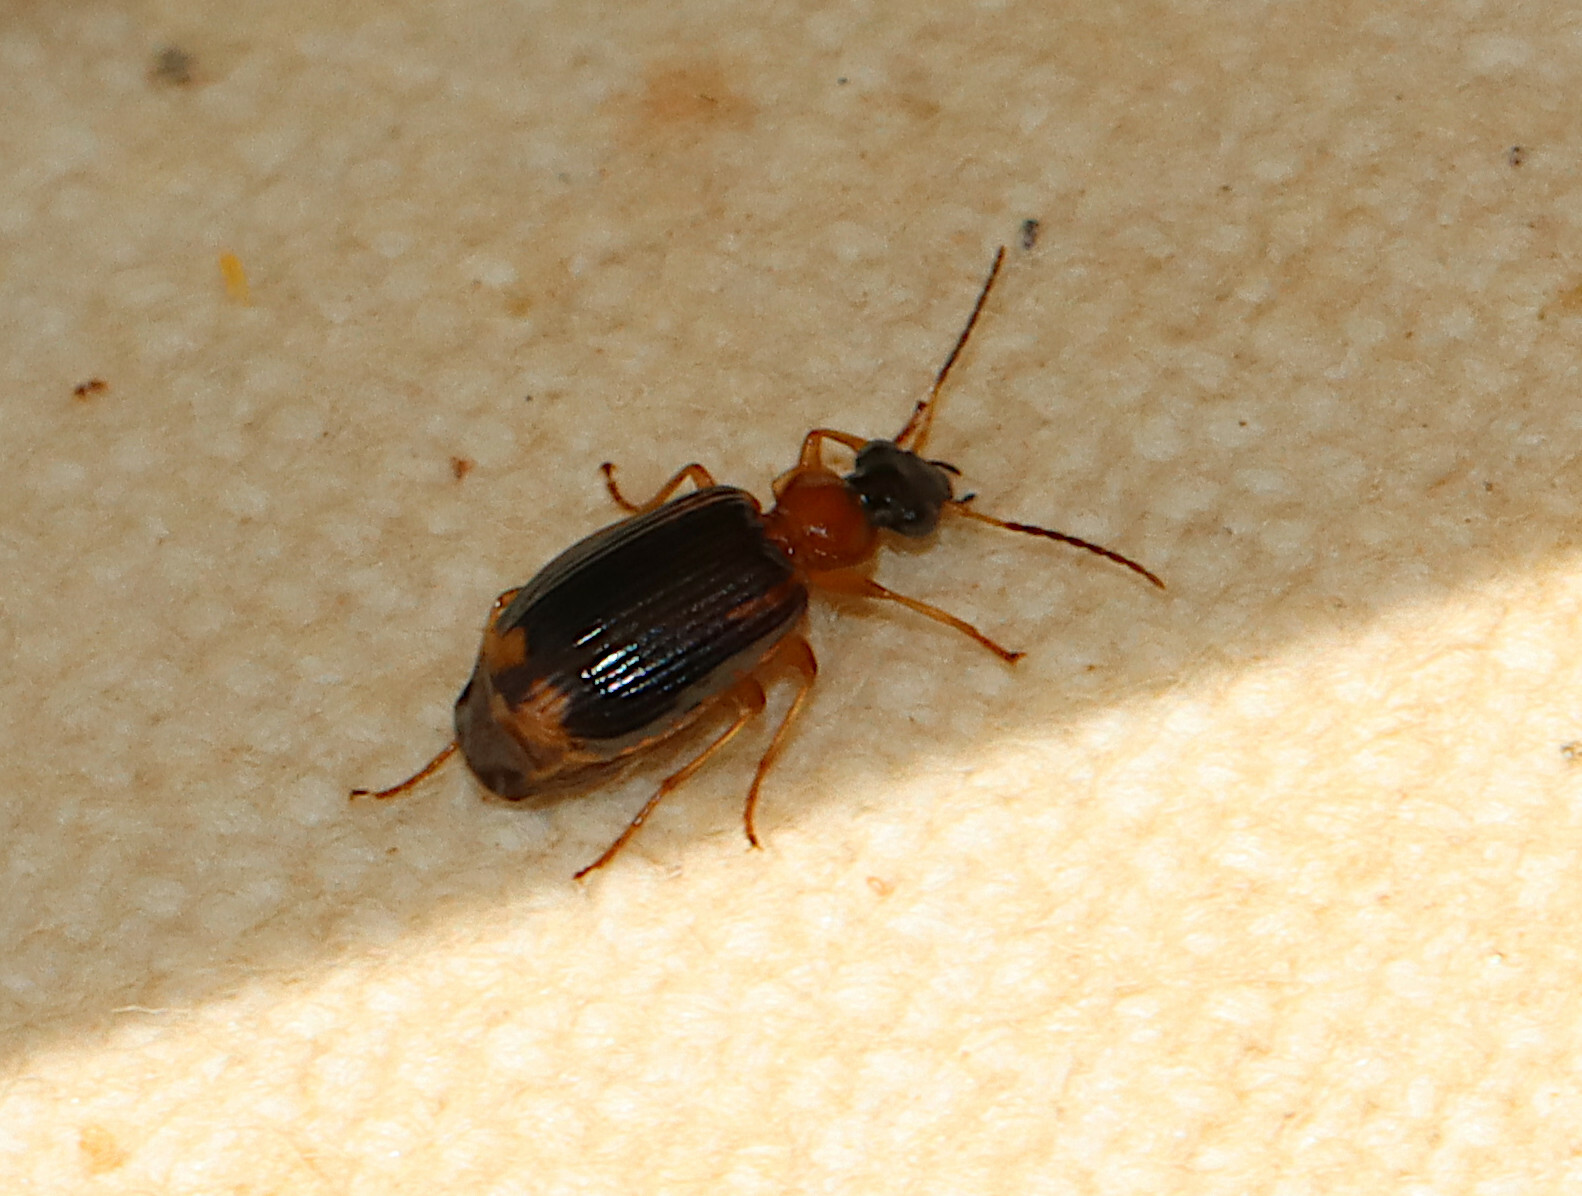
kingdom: Animalia
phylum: Arthropoda
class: Insecta
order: Coleoptera
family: Carabidae
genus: Lebia
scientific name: Lebia analis
